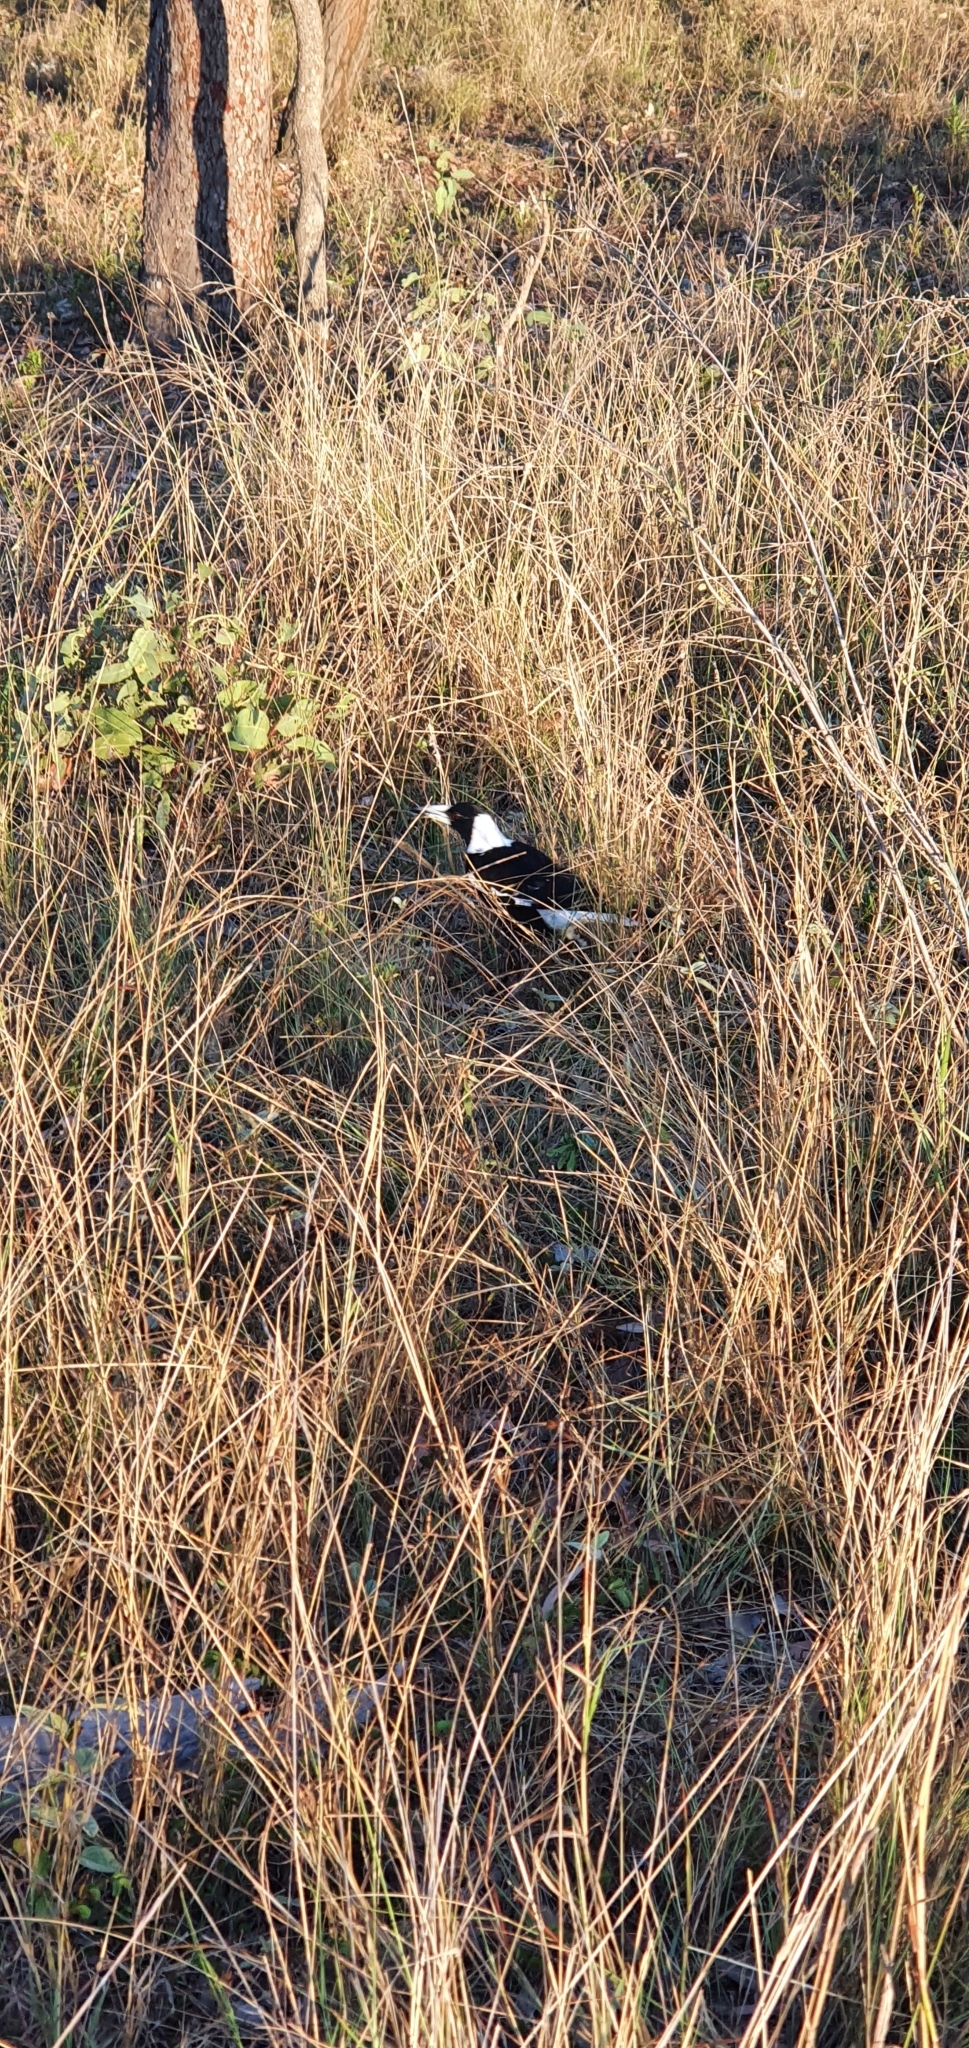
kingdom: Animalia
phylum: Chordata
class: Aves
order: Passeriformes
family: Cracticidae
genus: Gymnorhina
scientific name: Gymnorhina tibicen
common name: Australian magpie
